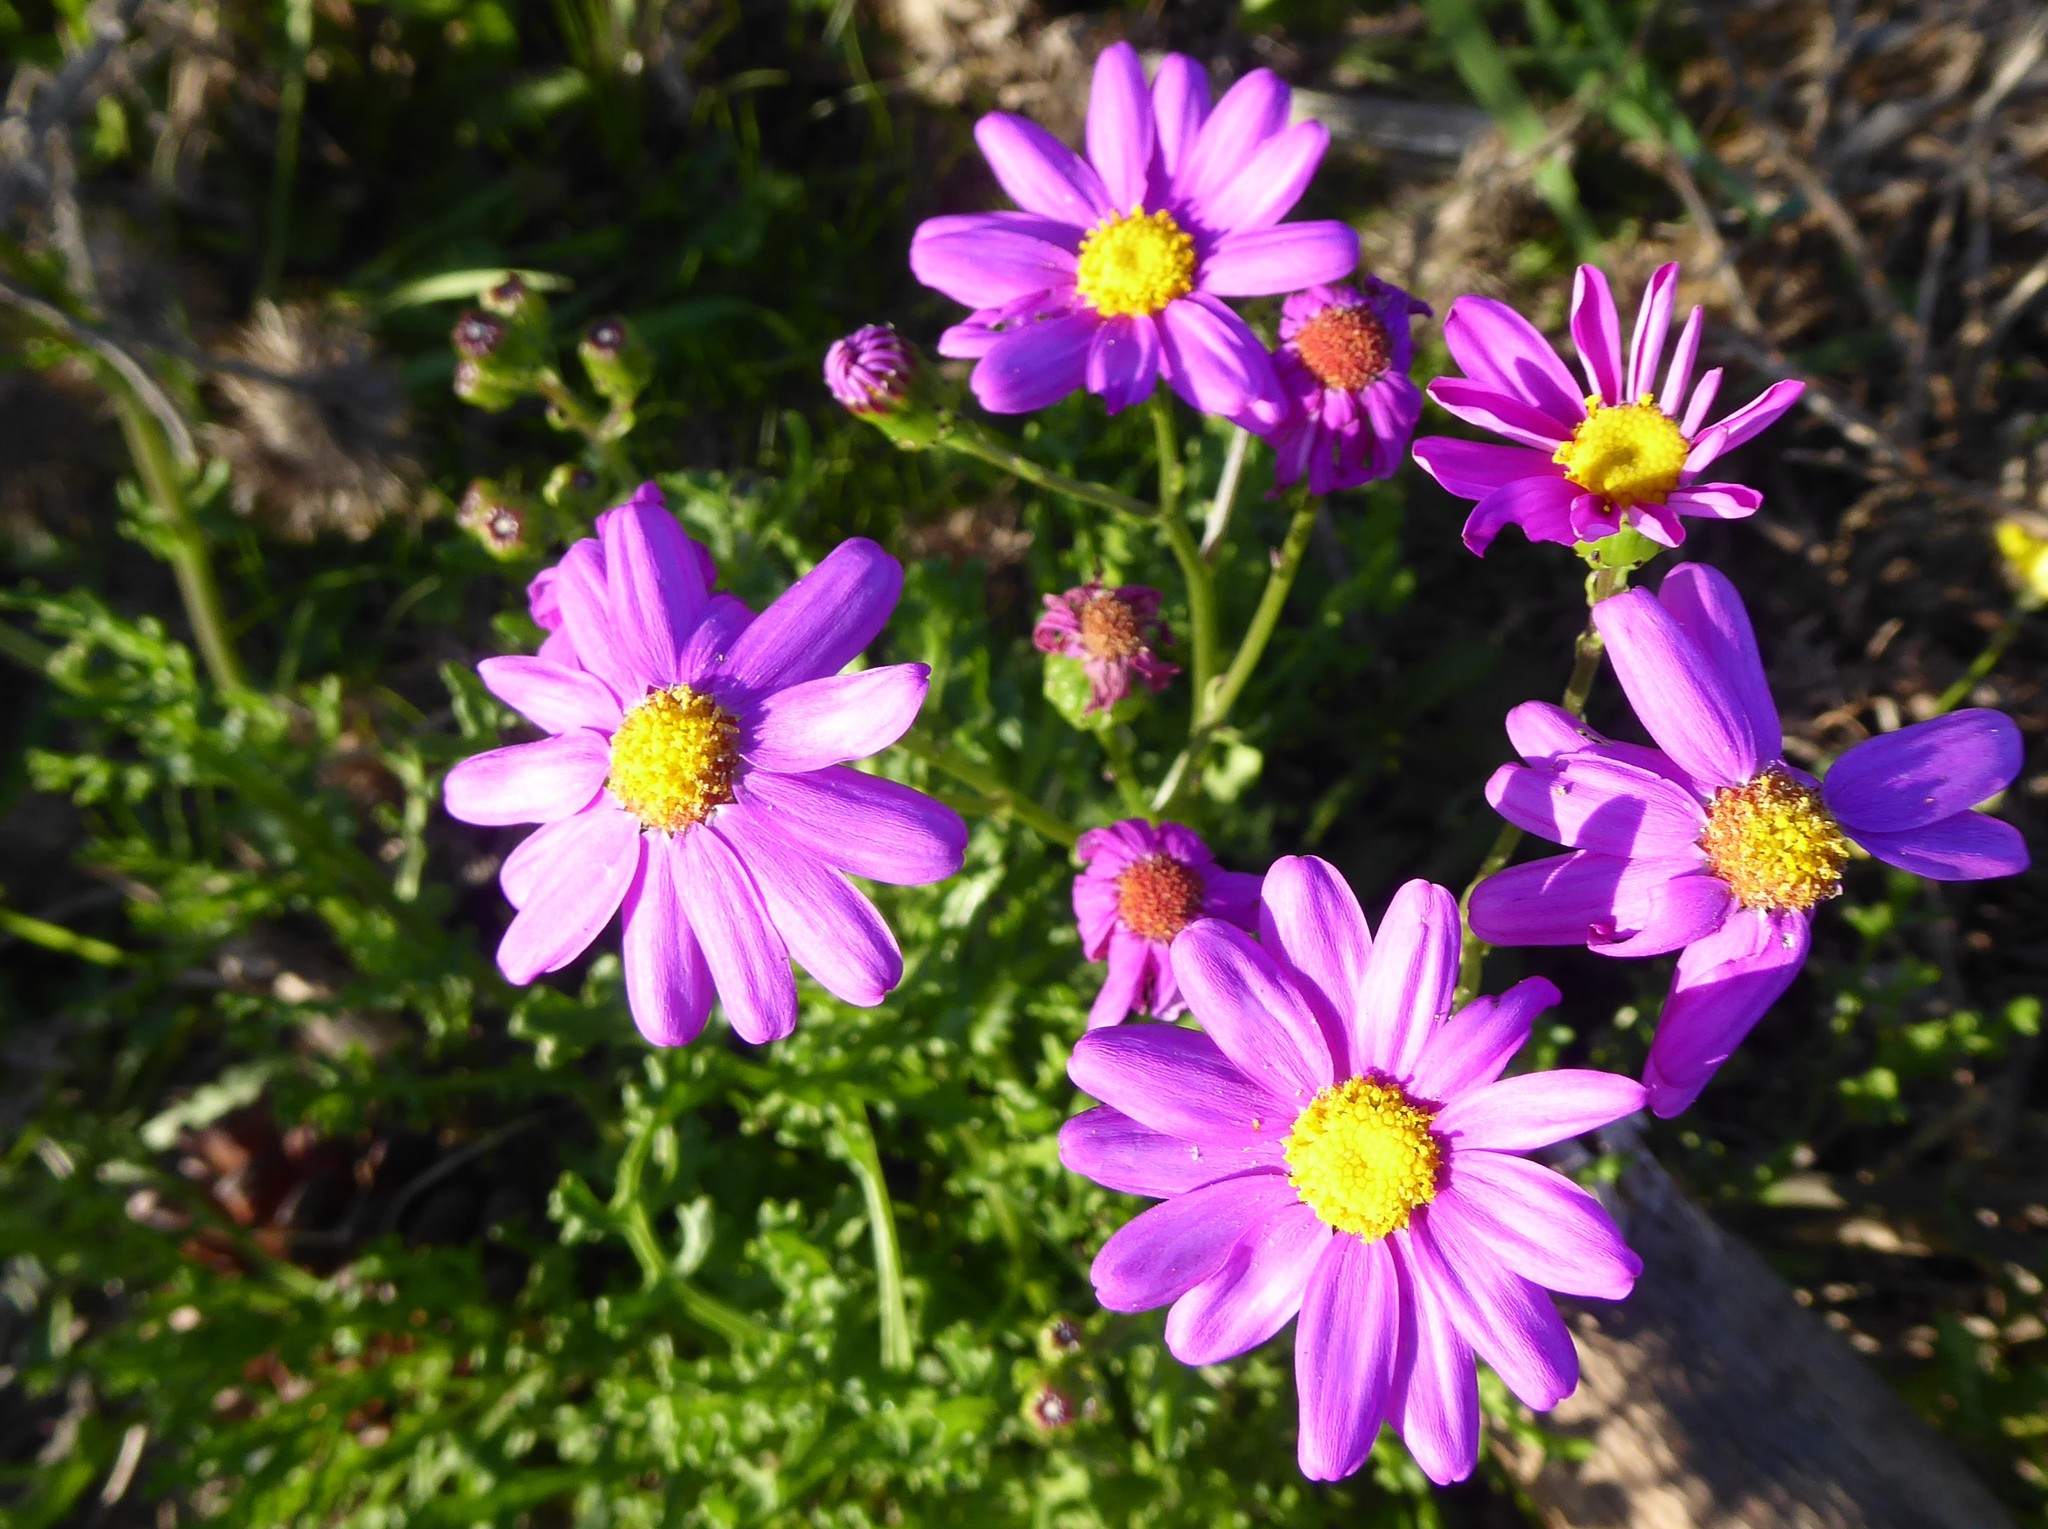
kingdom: Plantae
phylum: Tracheophyta
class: Magnoliopsida
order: Asterales
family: Asteraceae
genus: Senecio
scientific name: Senecio elegans
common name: Purple groundsel
